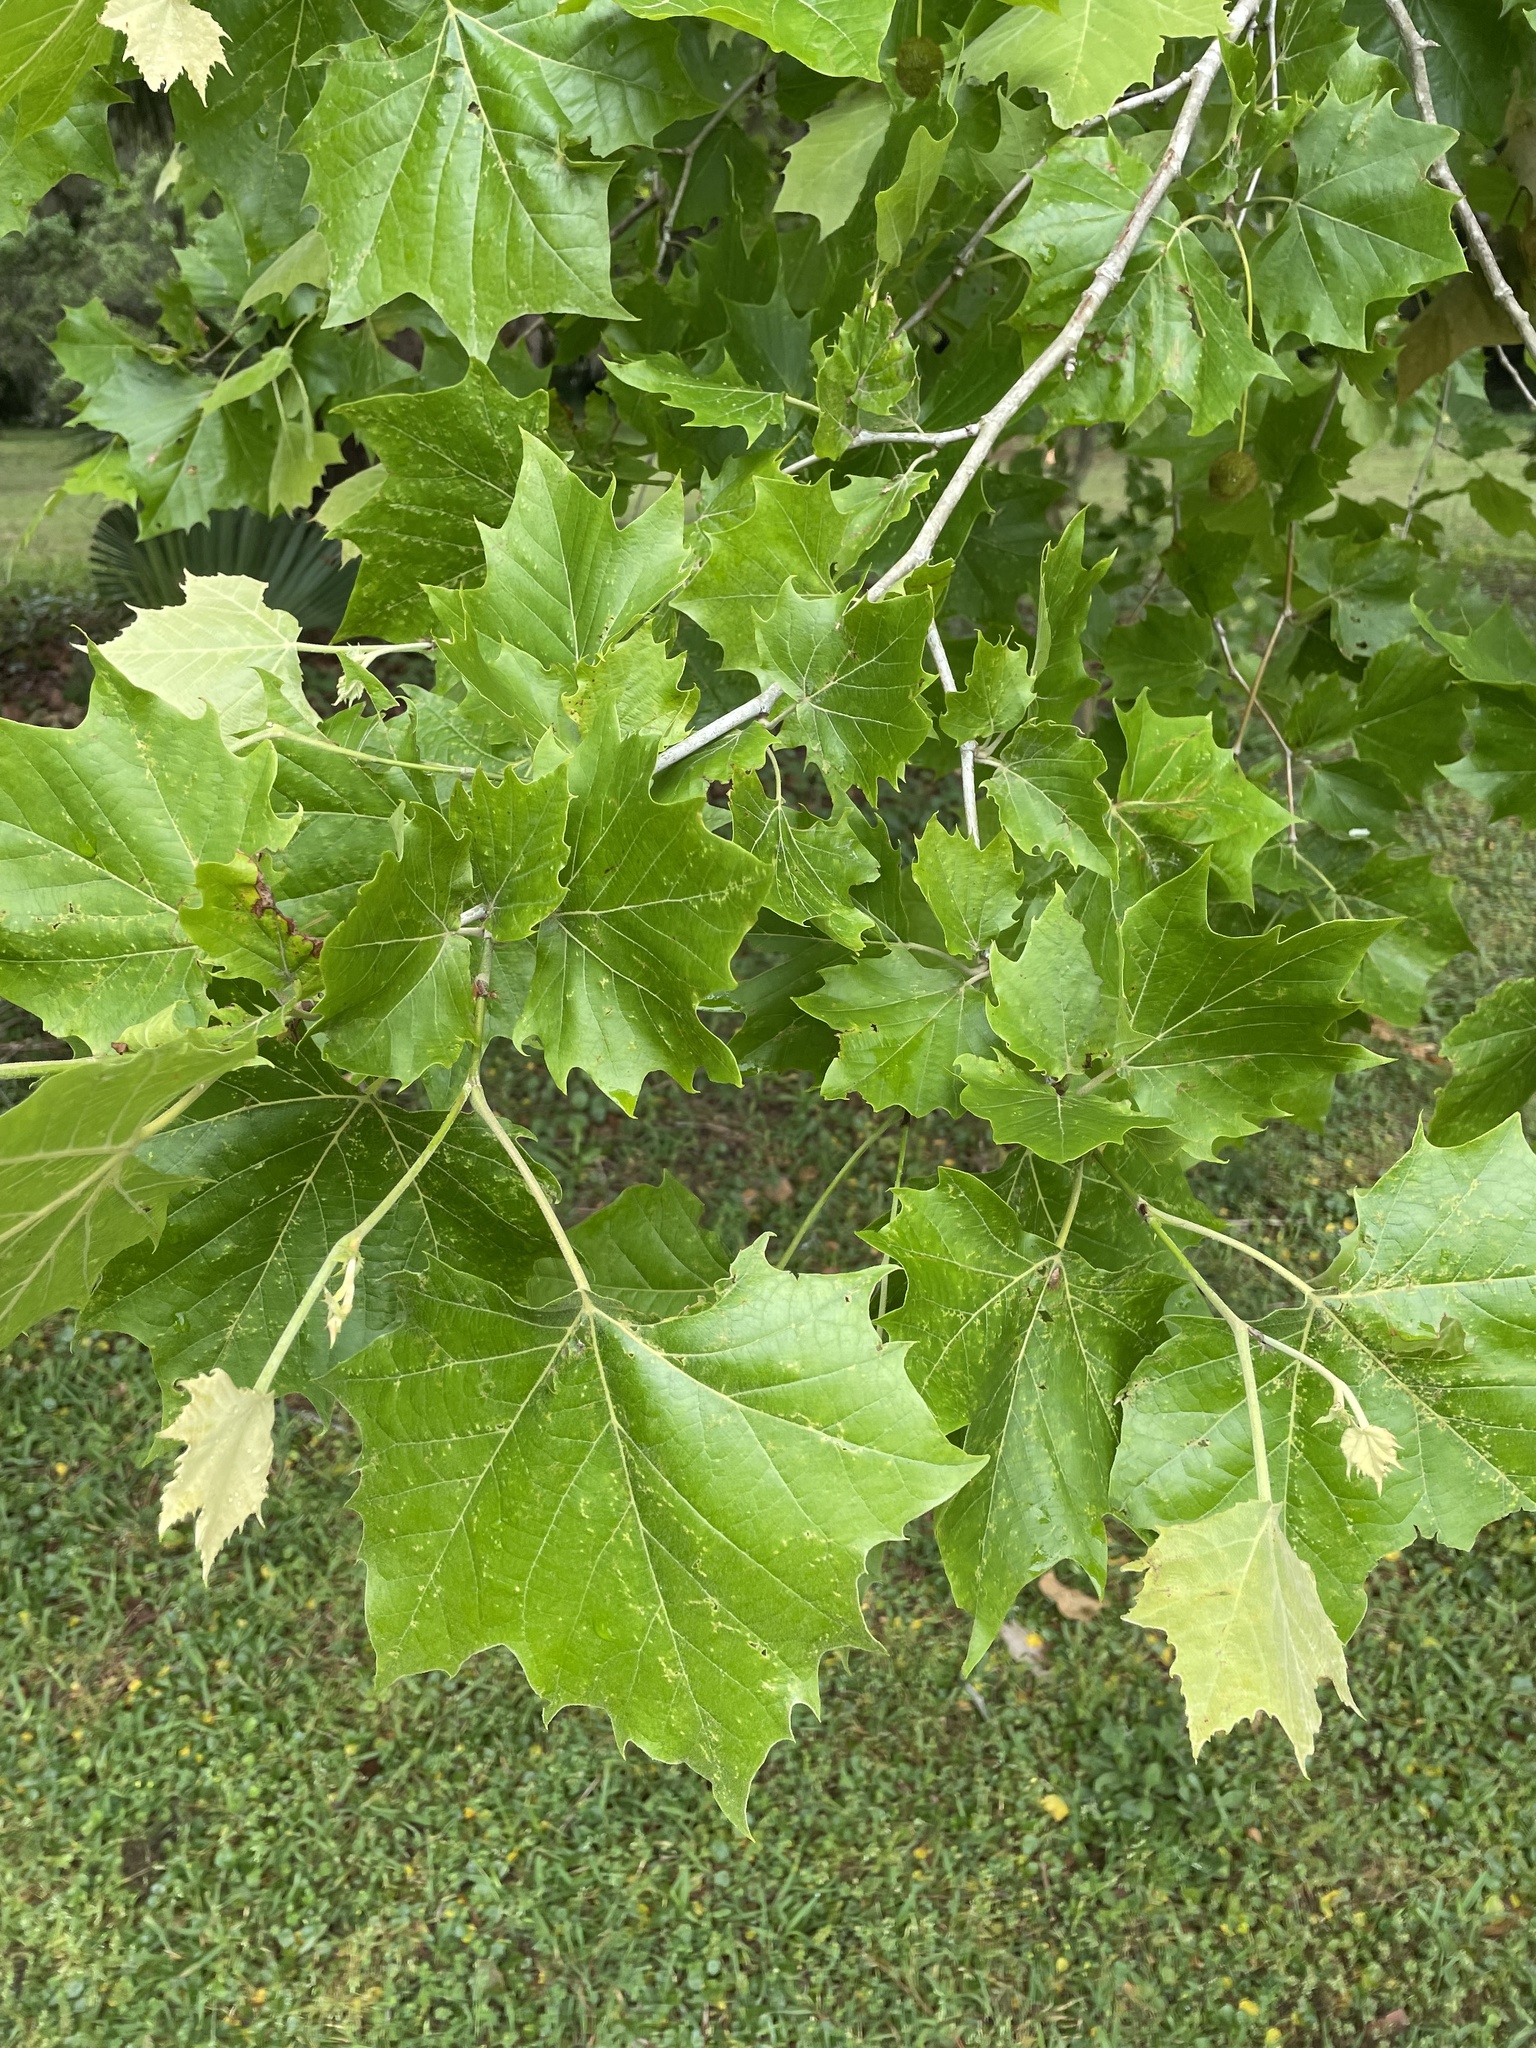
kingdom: Plantae
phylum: Tracheophyta
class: Magnoliopsida
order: Proteales
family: Platanaceae
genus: Platanus
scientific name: Platanus occidentalis
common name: American sycamore
